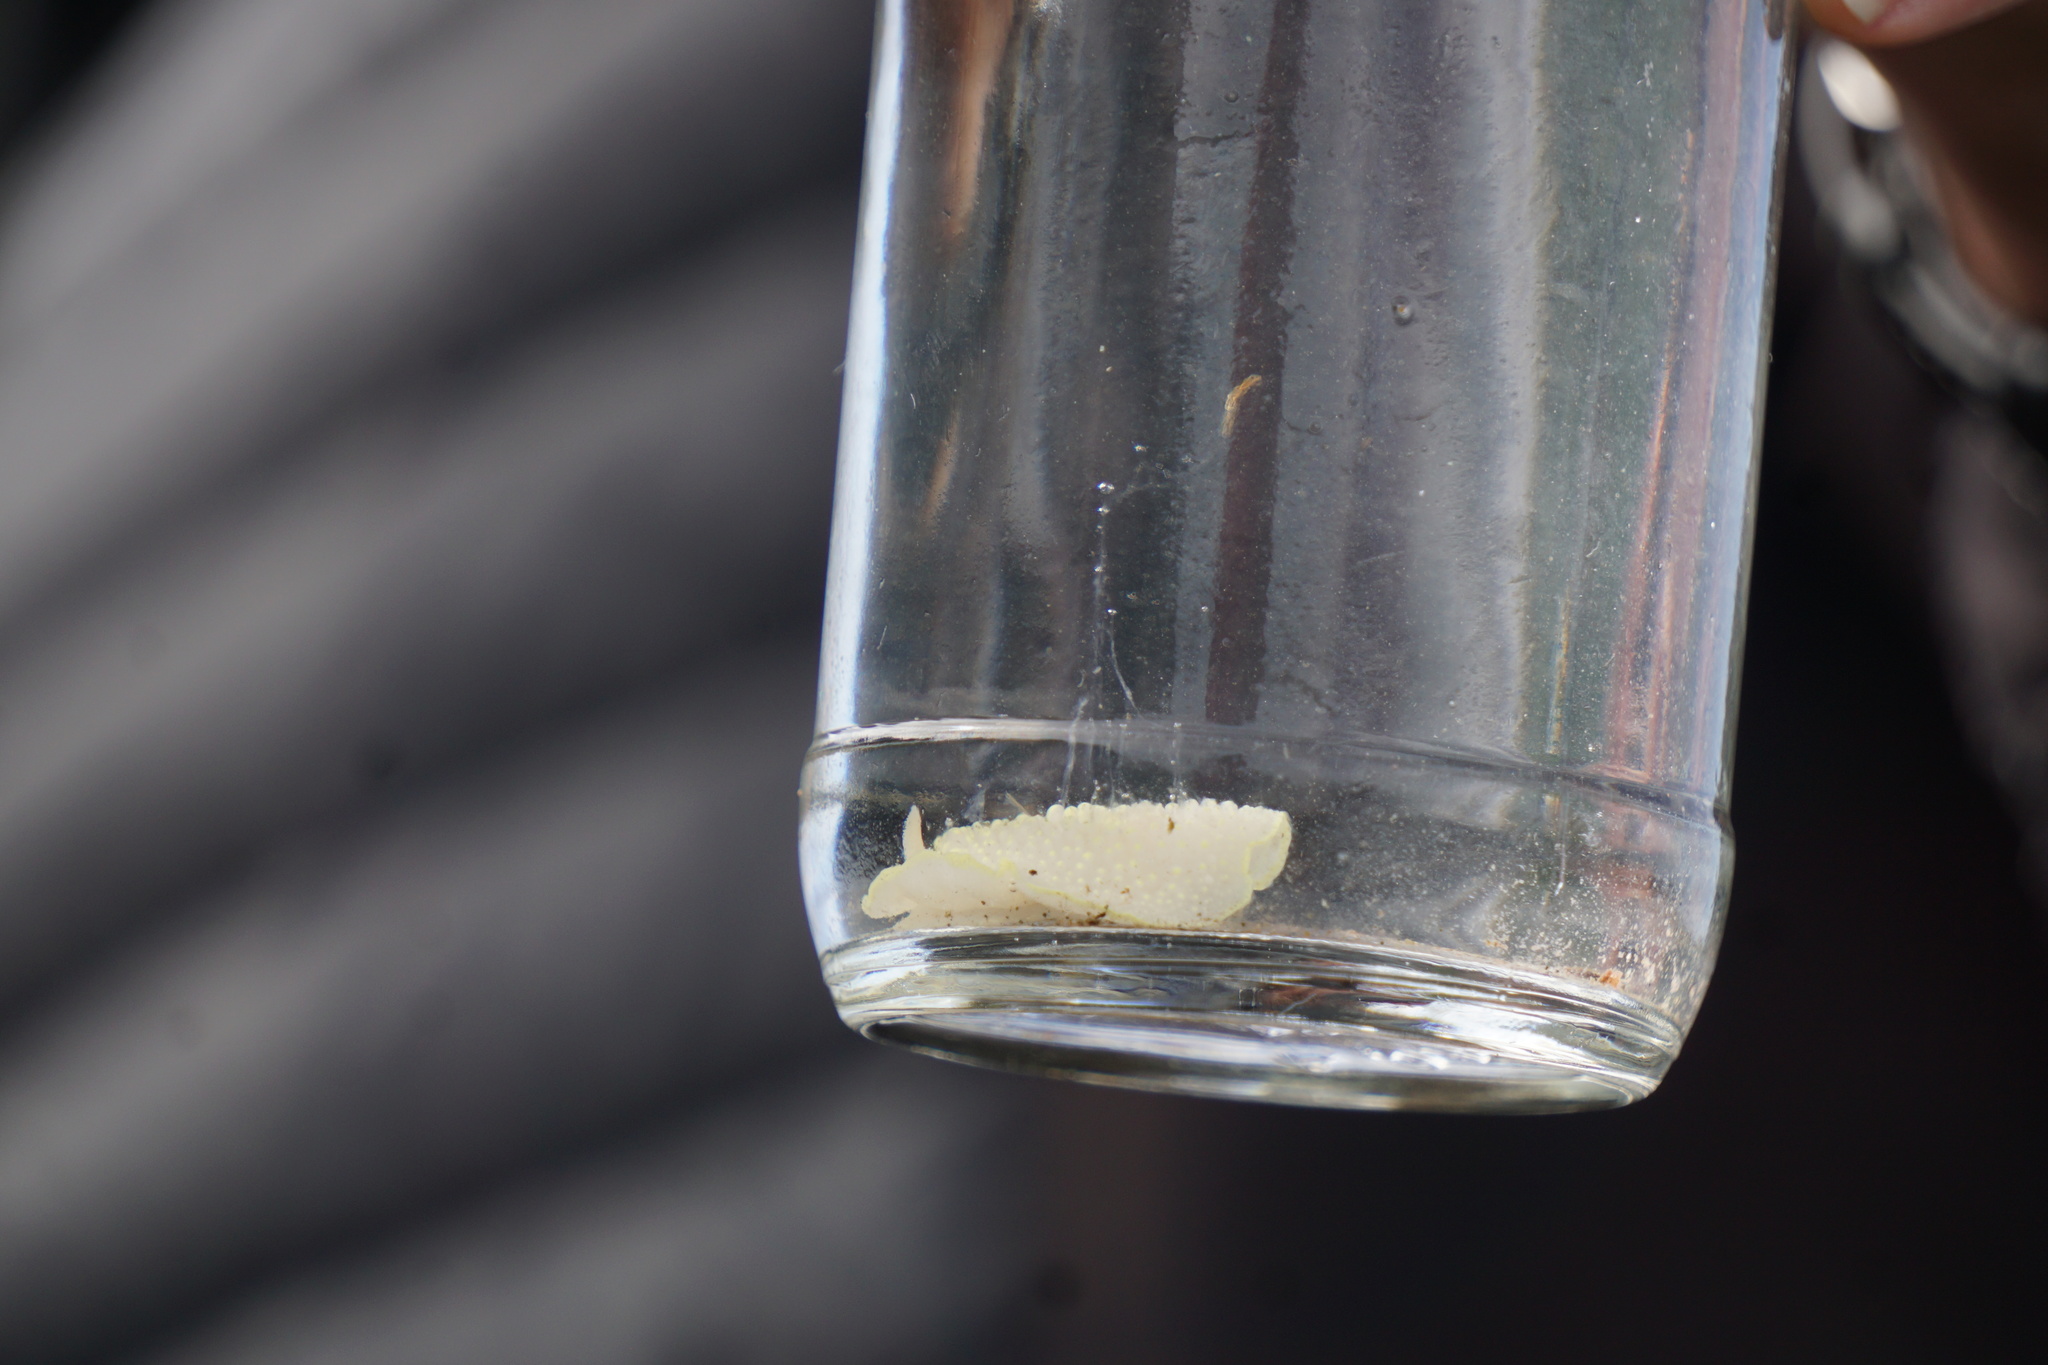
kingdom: Animalia
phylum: Mollusca
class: Gastropoda
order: Nudibranchia
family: Cadlinidae
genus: Cadlina
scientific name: Cadlina luteomarginata
